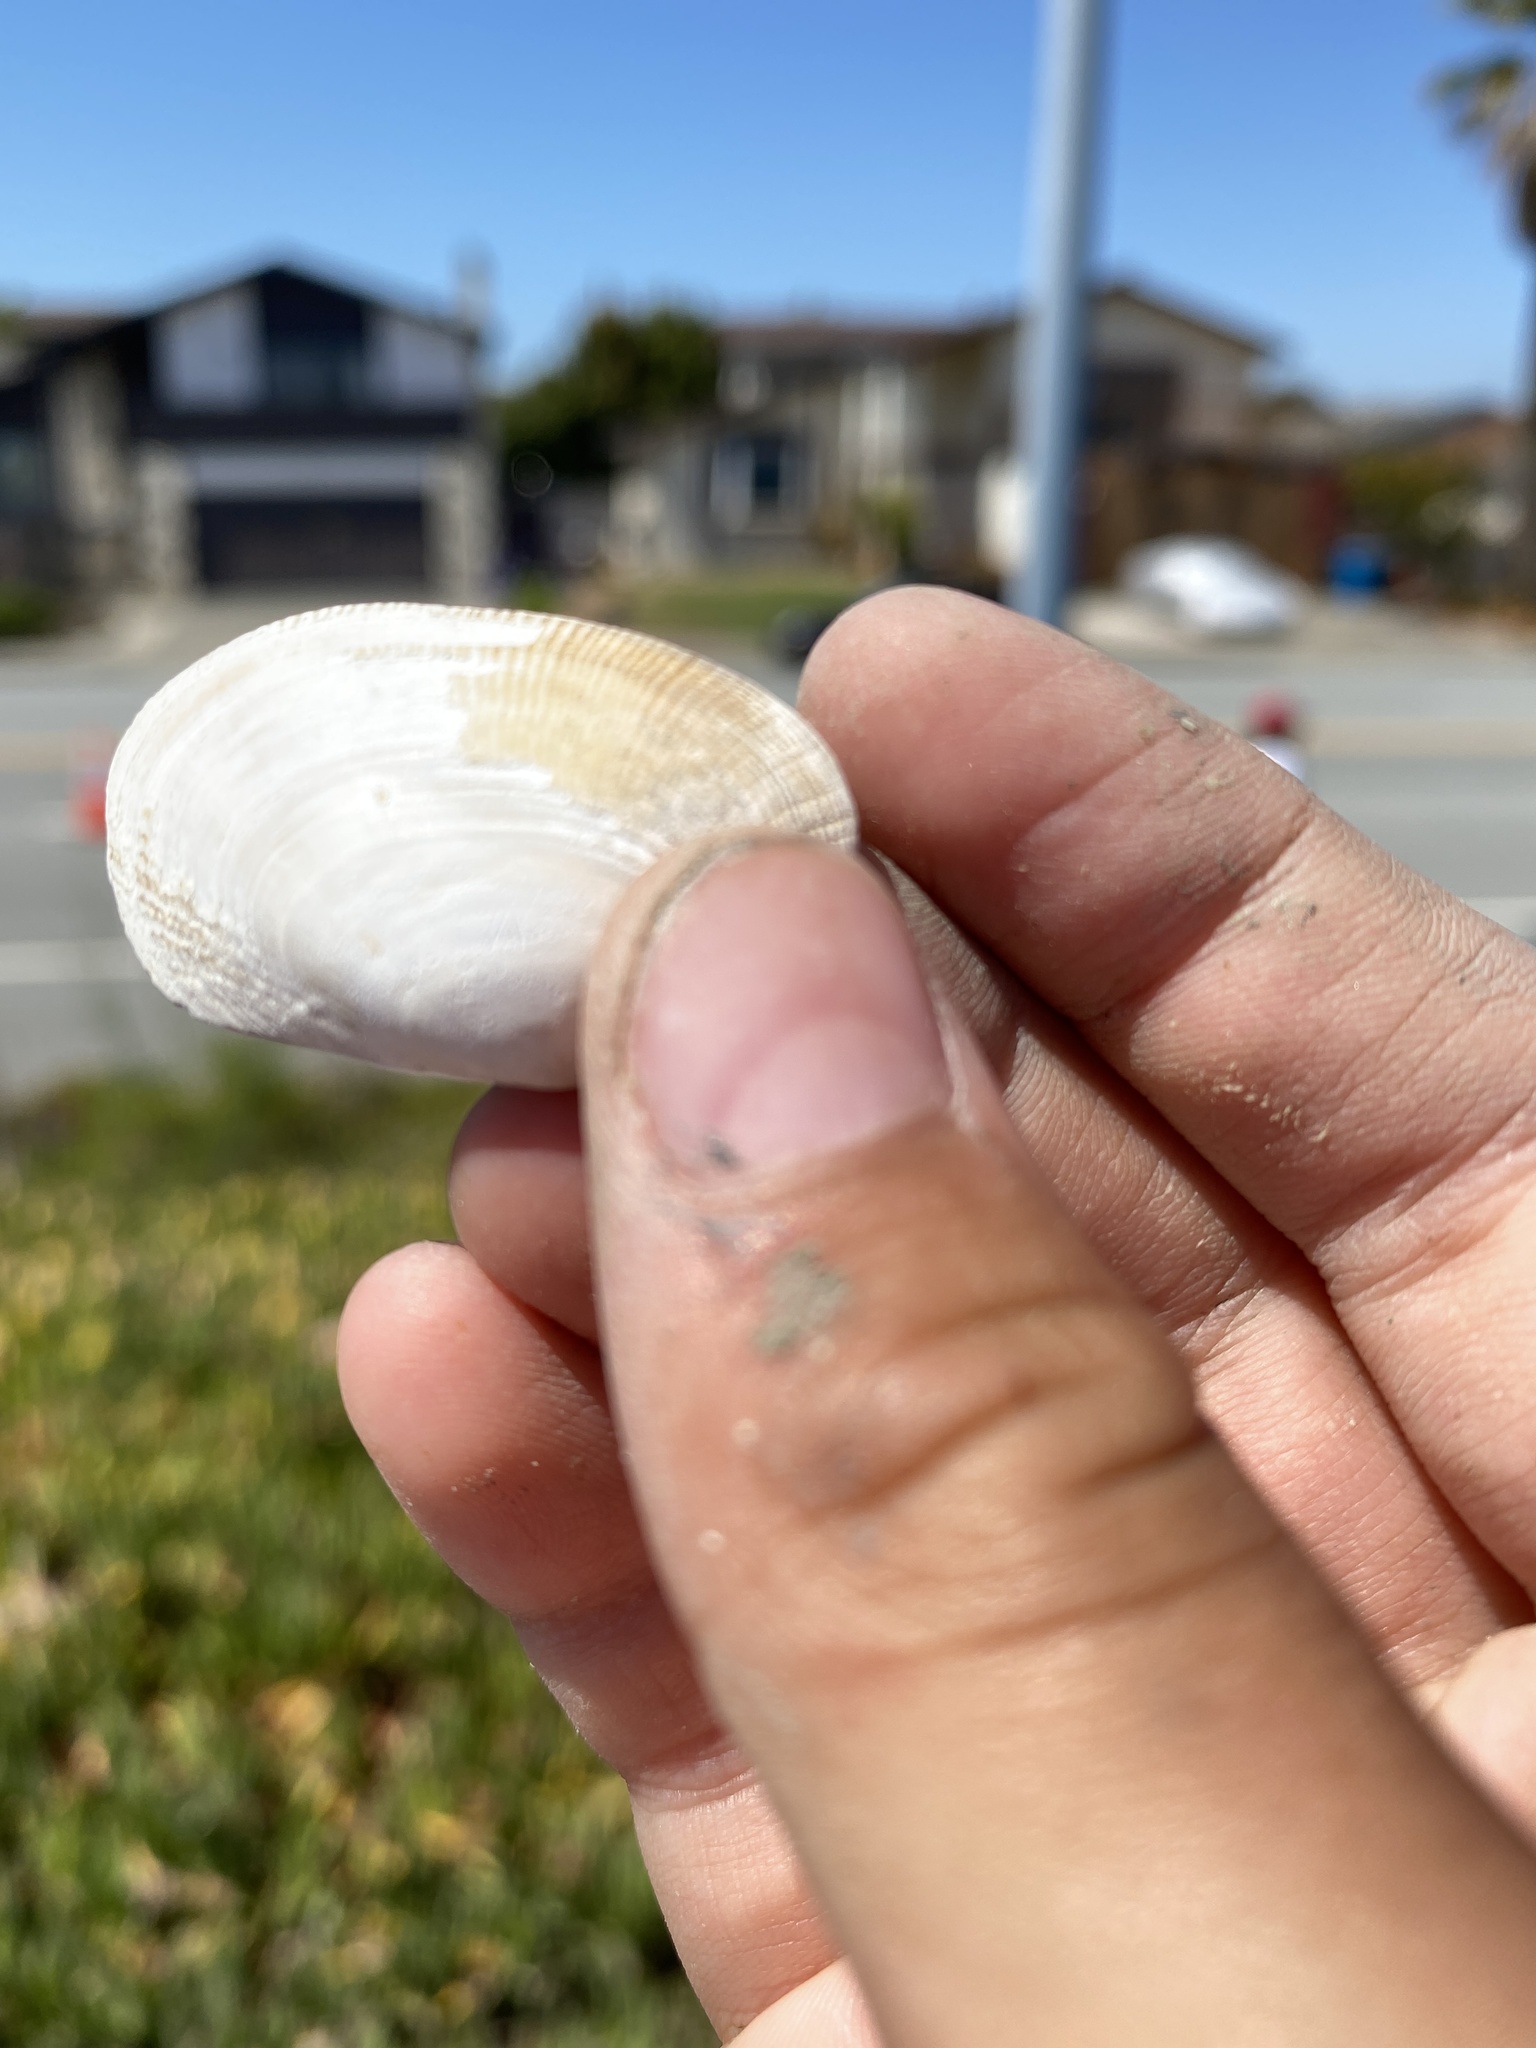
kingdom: Animalia
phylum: Mollusca
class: Bivalvia
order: Venerida
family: Veneridae
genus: Ruditapes
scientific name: Ruditapes philippinarum
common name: Manila clam
